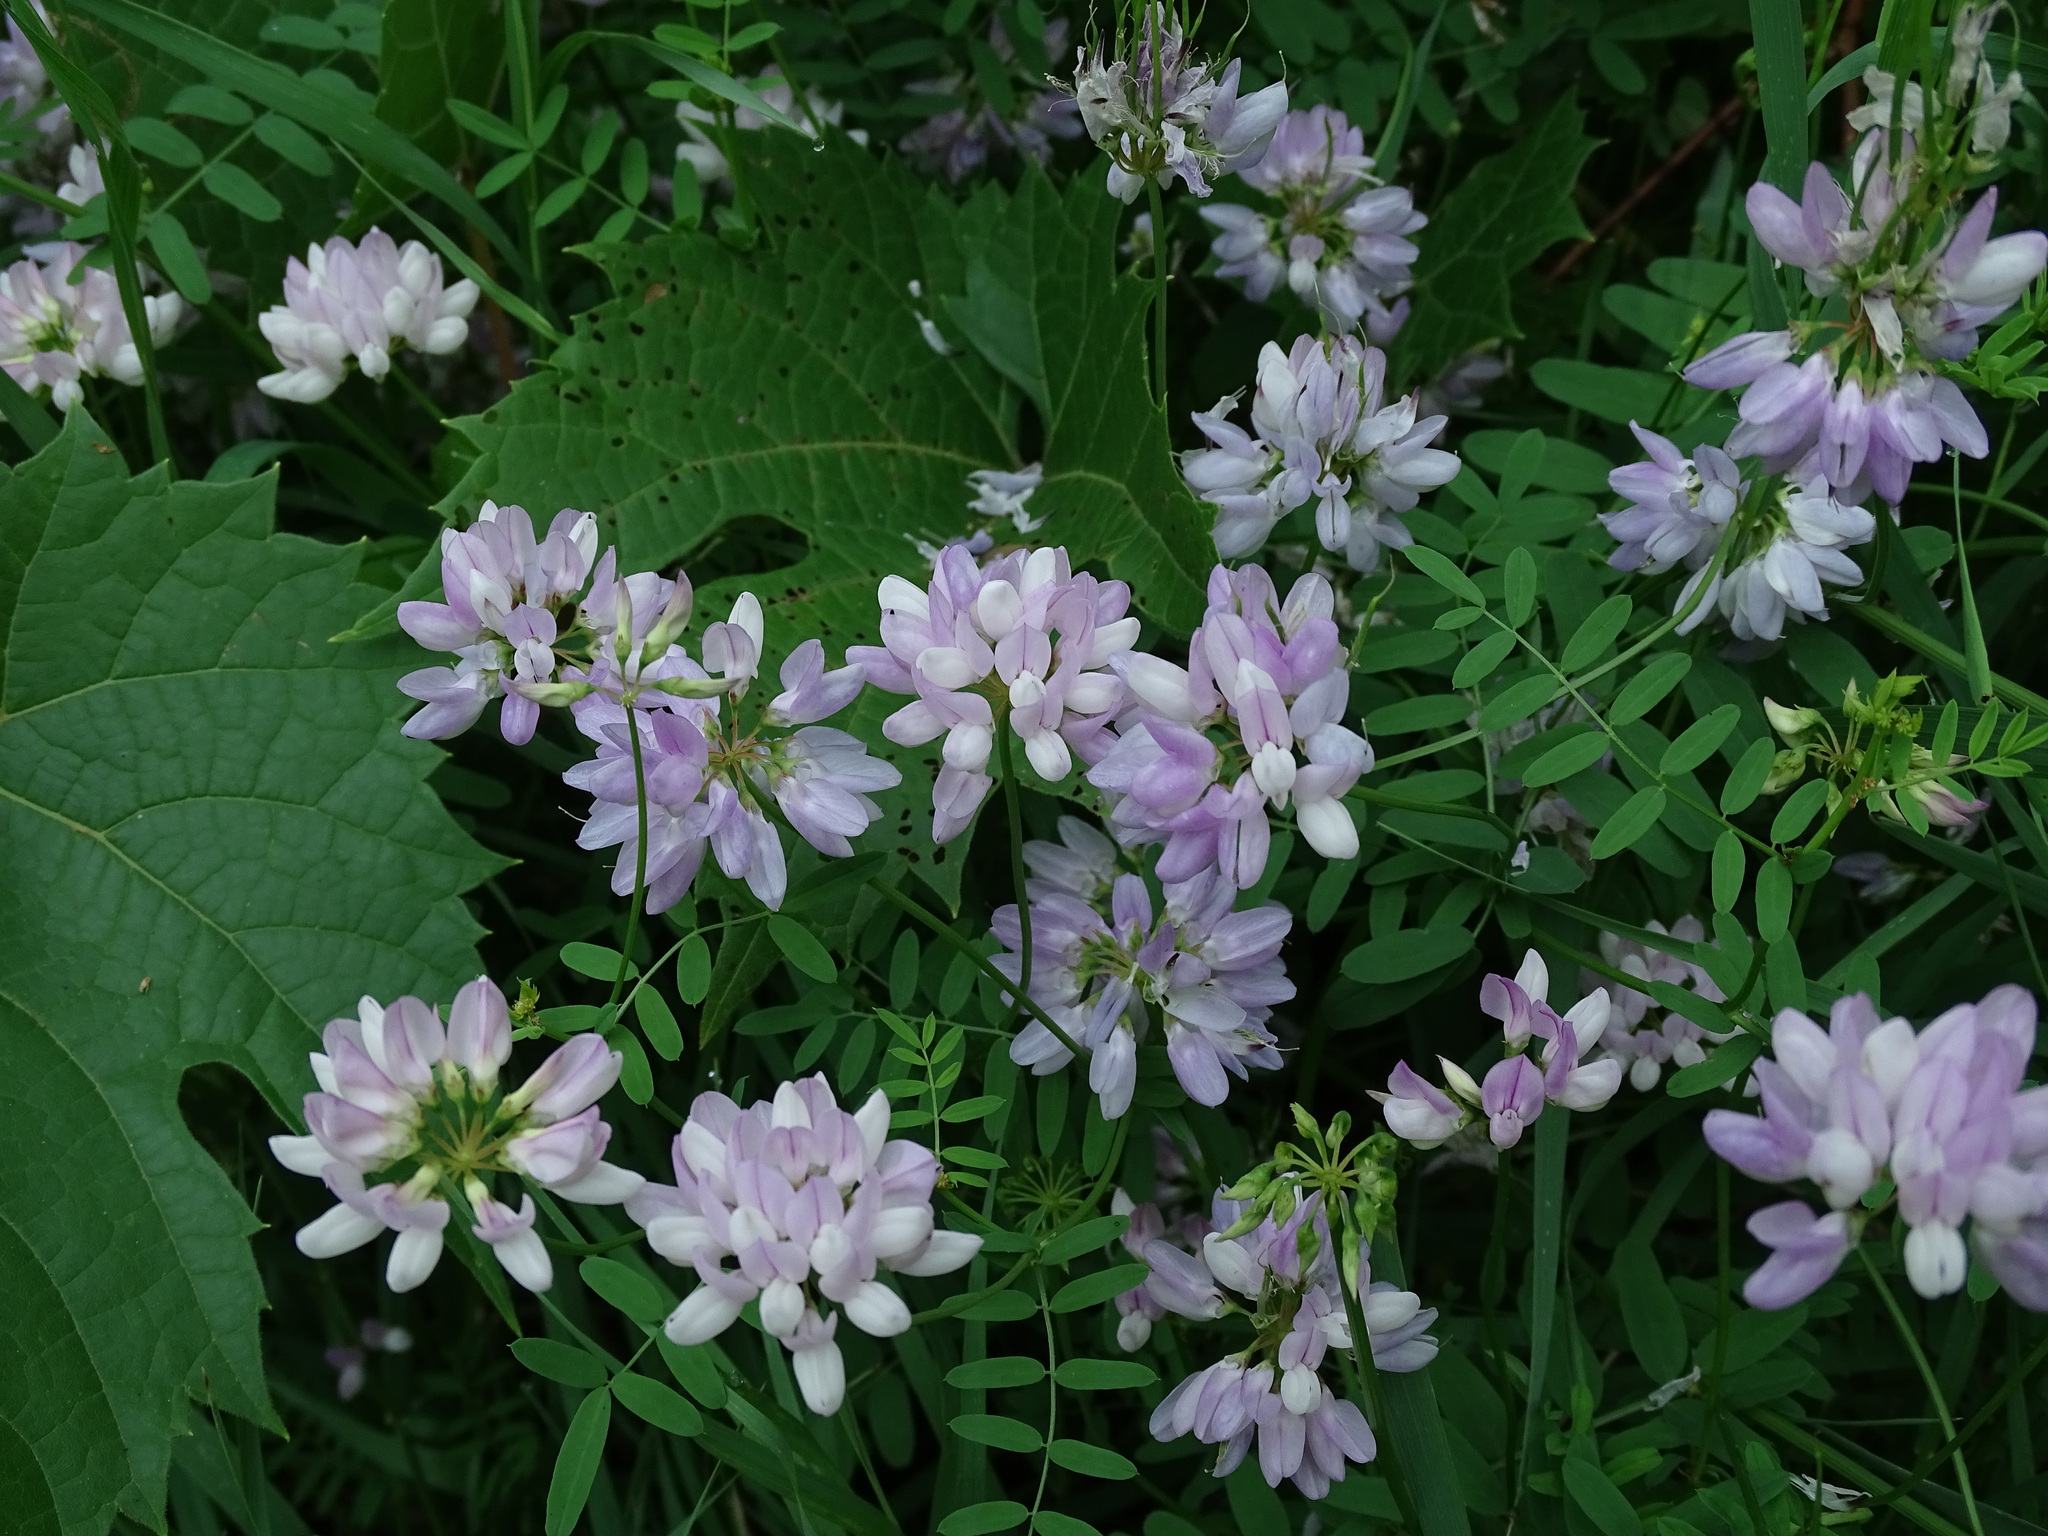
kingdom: Plantae
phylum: Tracheophyta
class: Magnoliopsida
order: Fabales
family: Fabaceae
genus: Coronilla
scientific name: Coronilla varia
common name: Crownvetch
